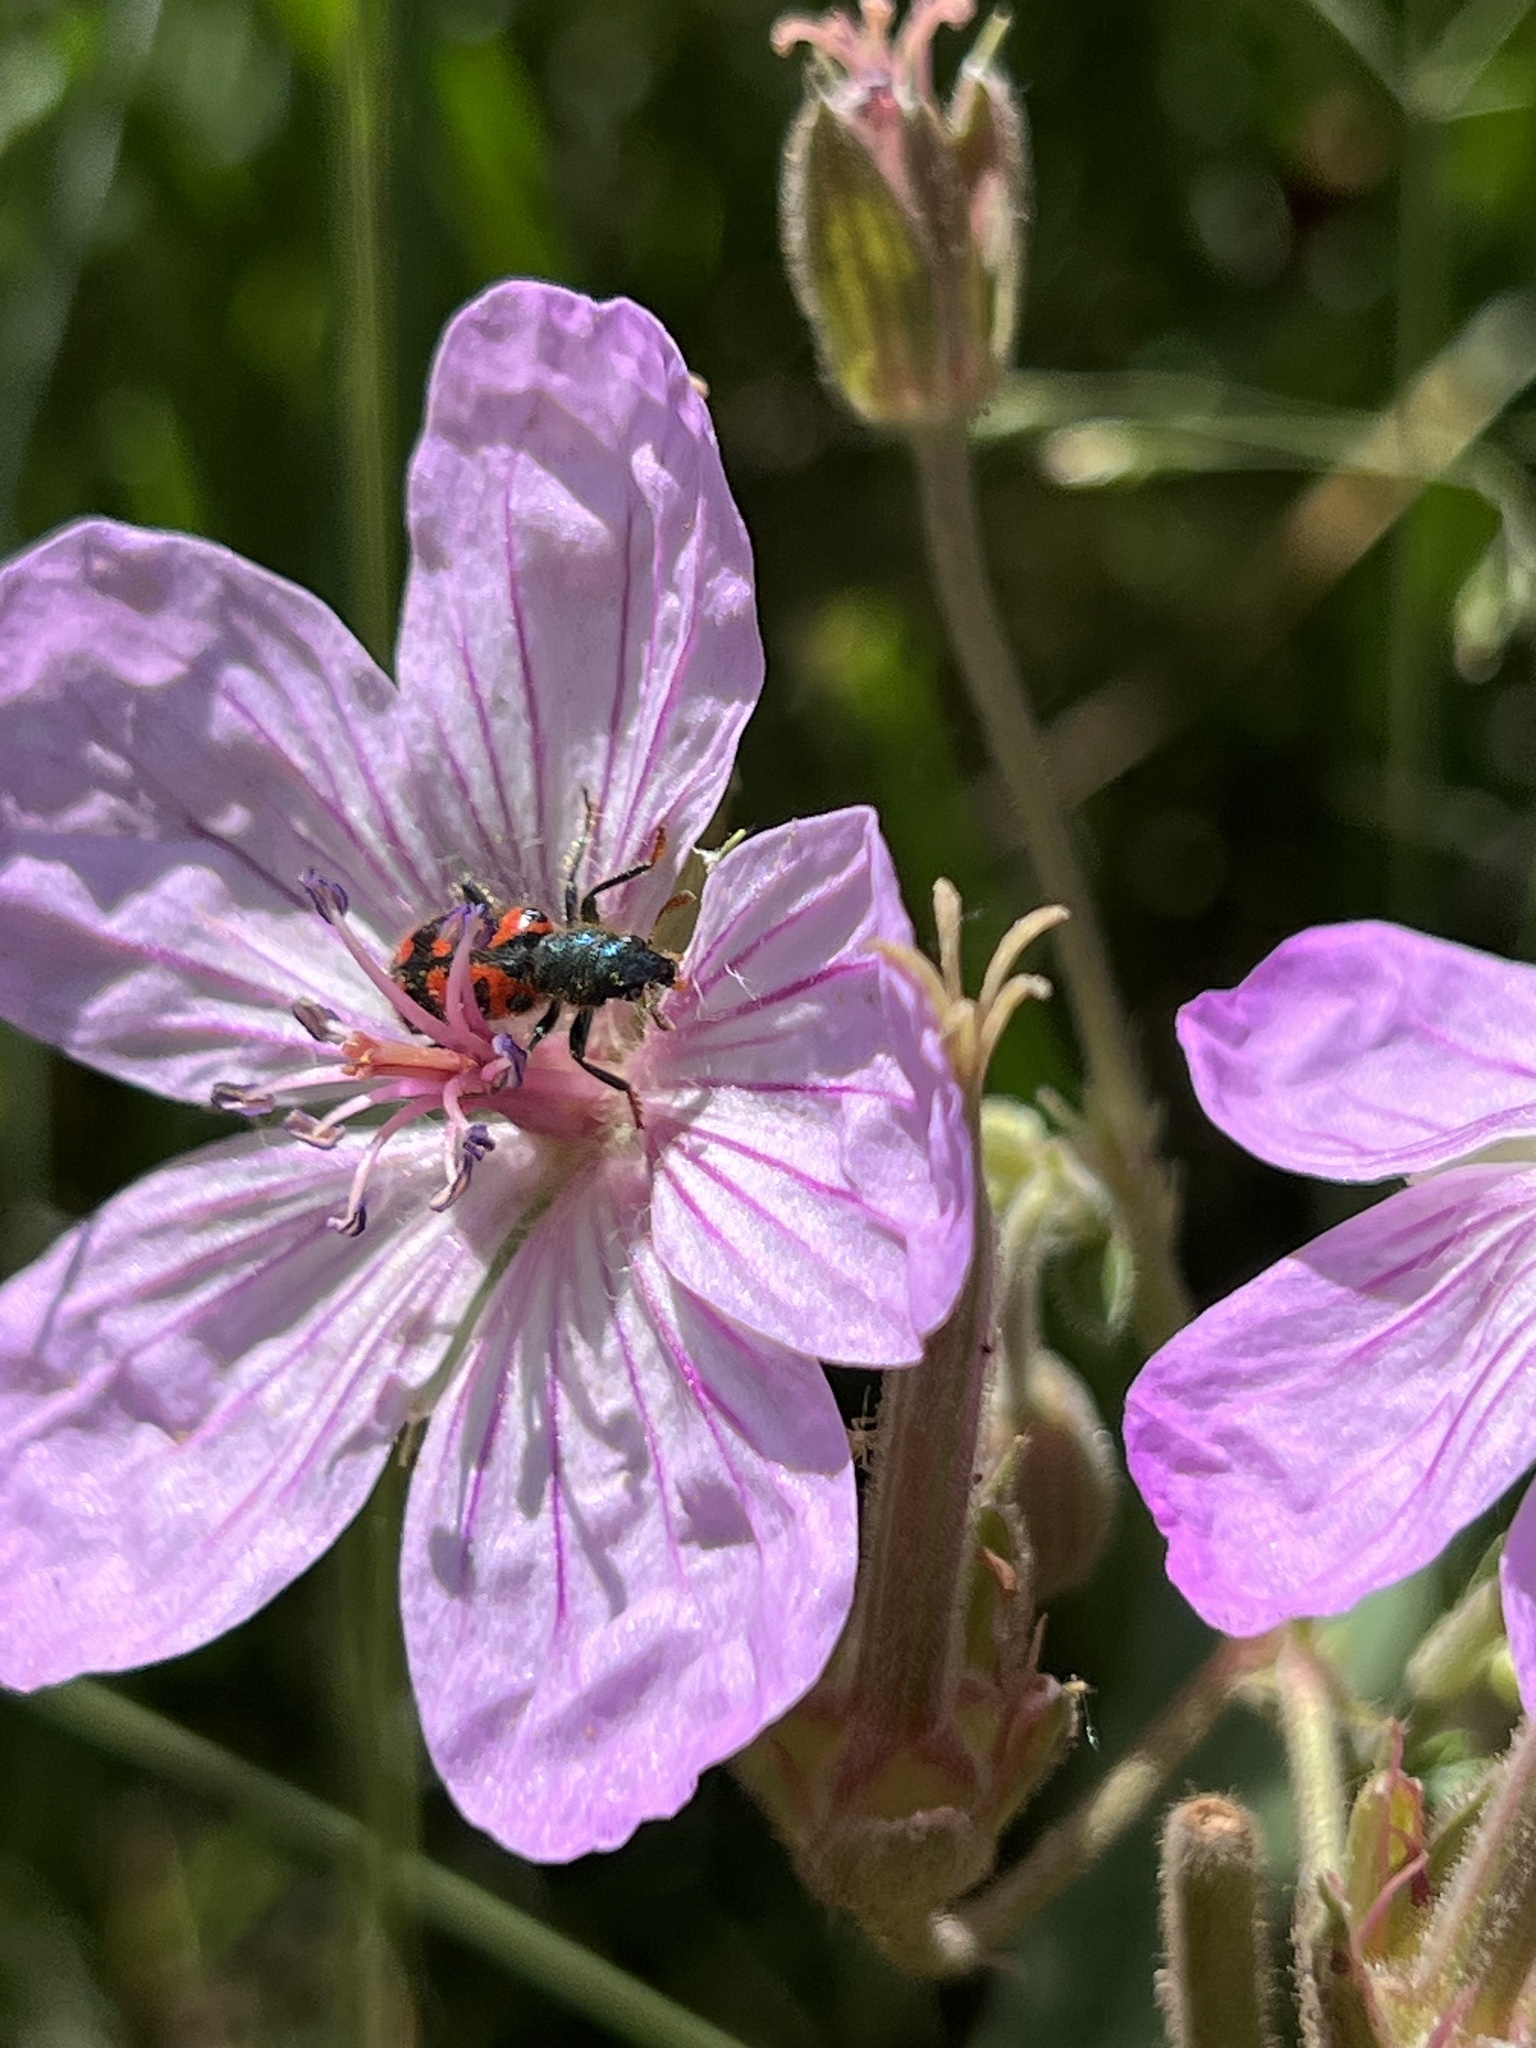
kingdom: Animalia
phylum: Arthropoda
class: Insecta
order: Coleoptera
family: Cleridae
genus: Trichodes
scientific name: Trichodes ornatus
